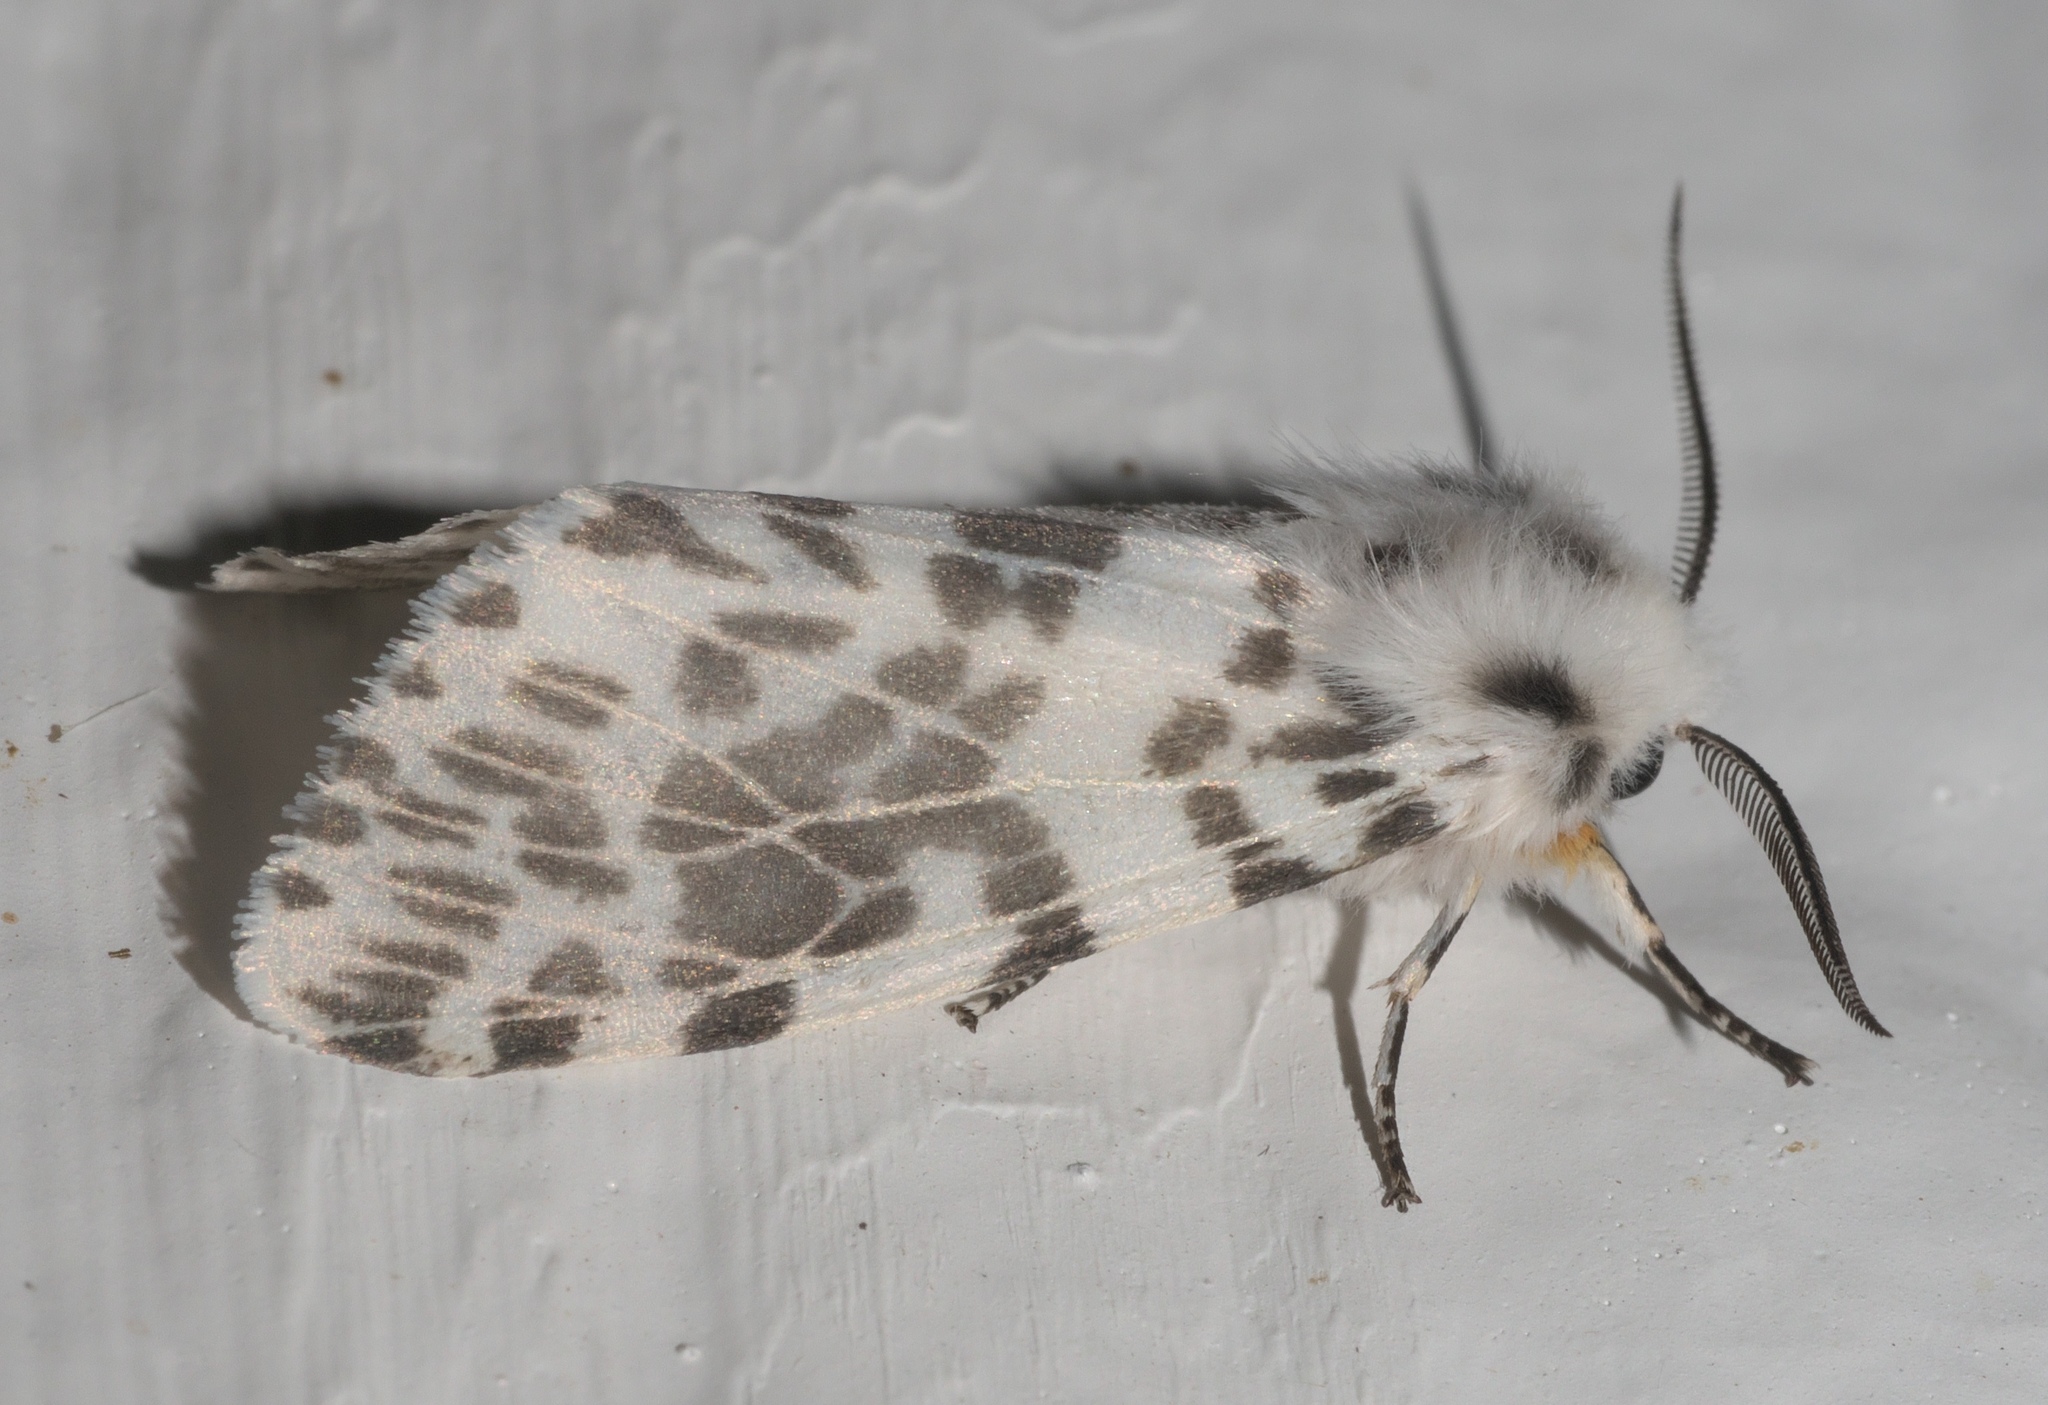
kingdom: Animalia
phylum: Arthropoda
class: Insecta
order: Lepidoptera
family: Erebidae
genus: Hyphantria
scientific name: Hyphantria cunea
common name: American white moth
